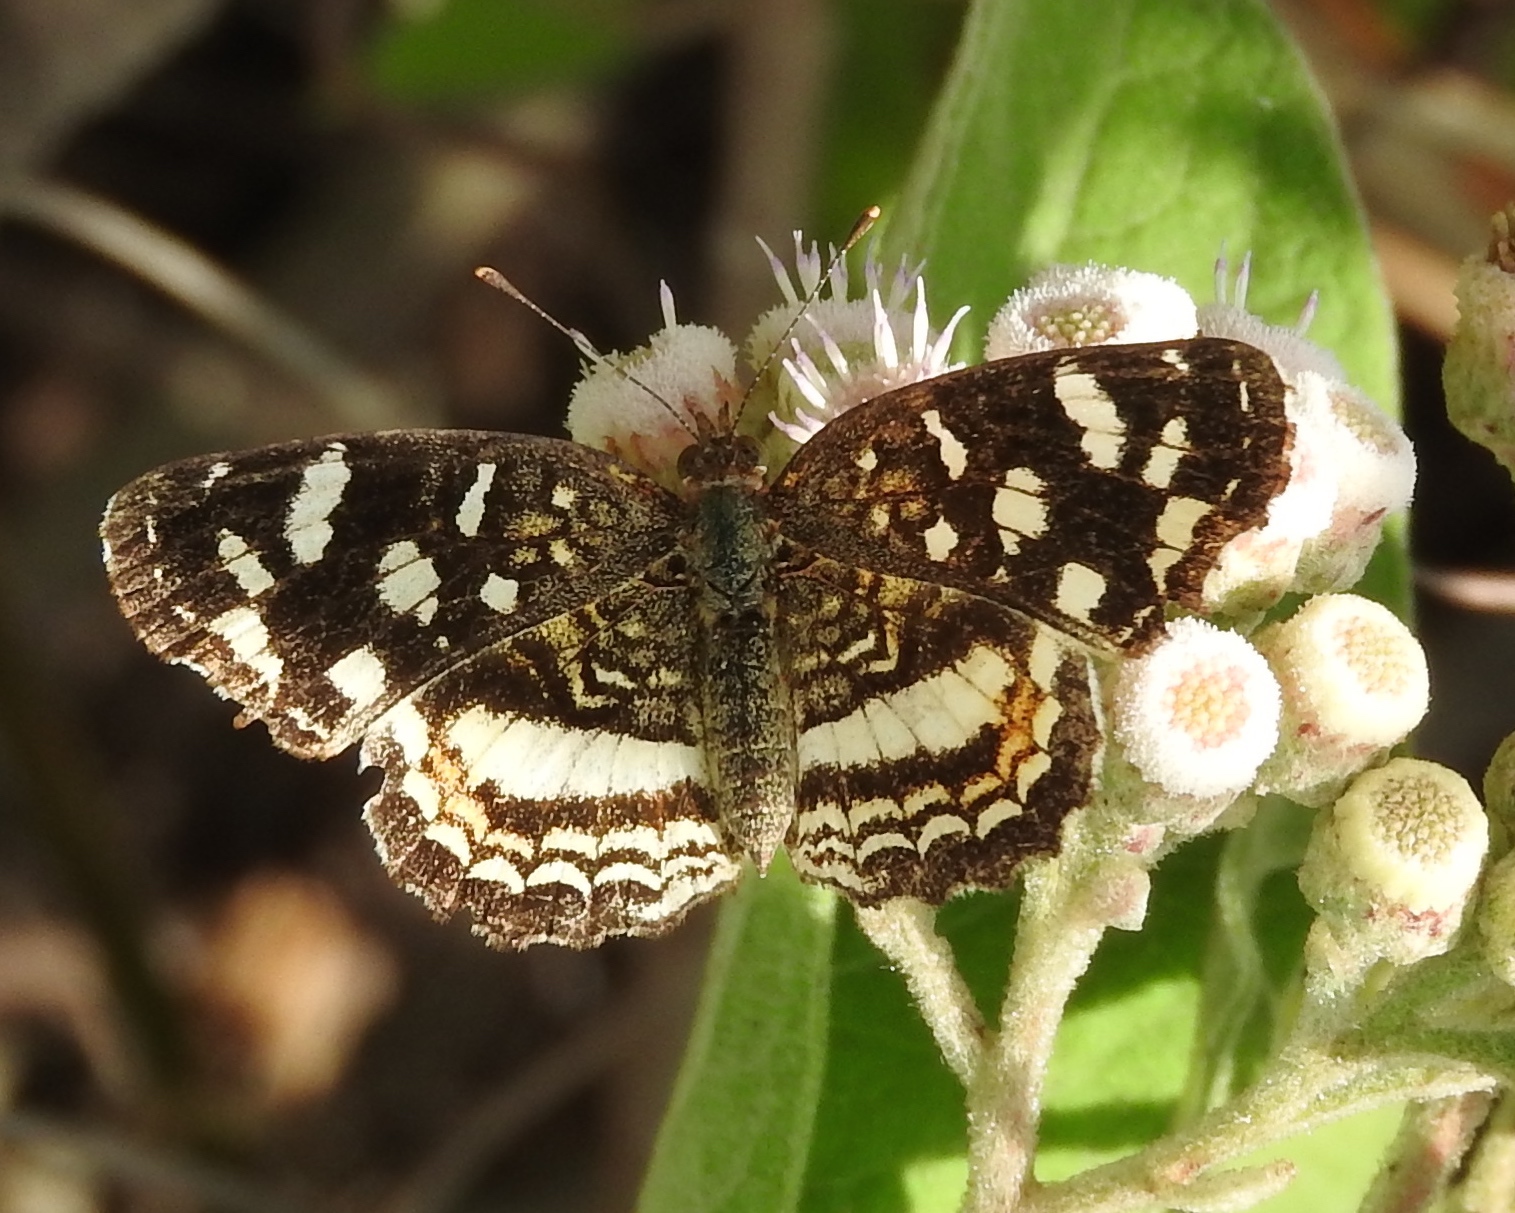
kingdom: Animalia
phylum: Arthropoda
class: Insecta
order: Lepidoptera
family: Nymphalidae
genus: Anthanassa
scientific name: Anthanassa tulcis
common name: Pale-banded crescent
